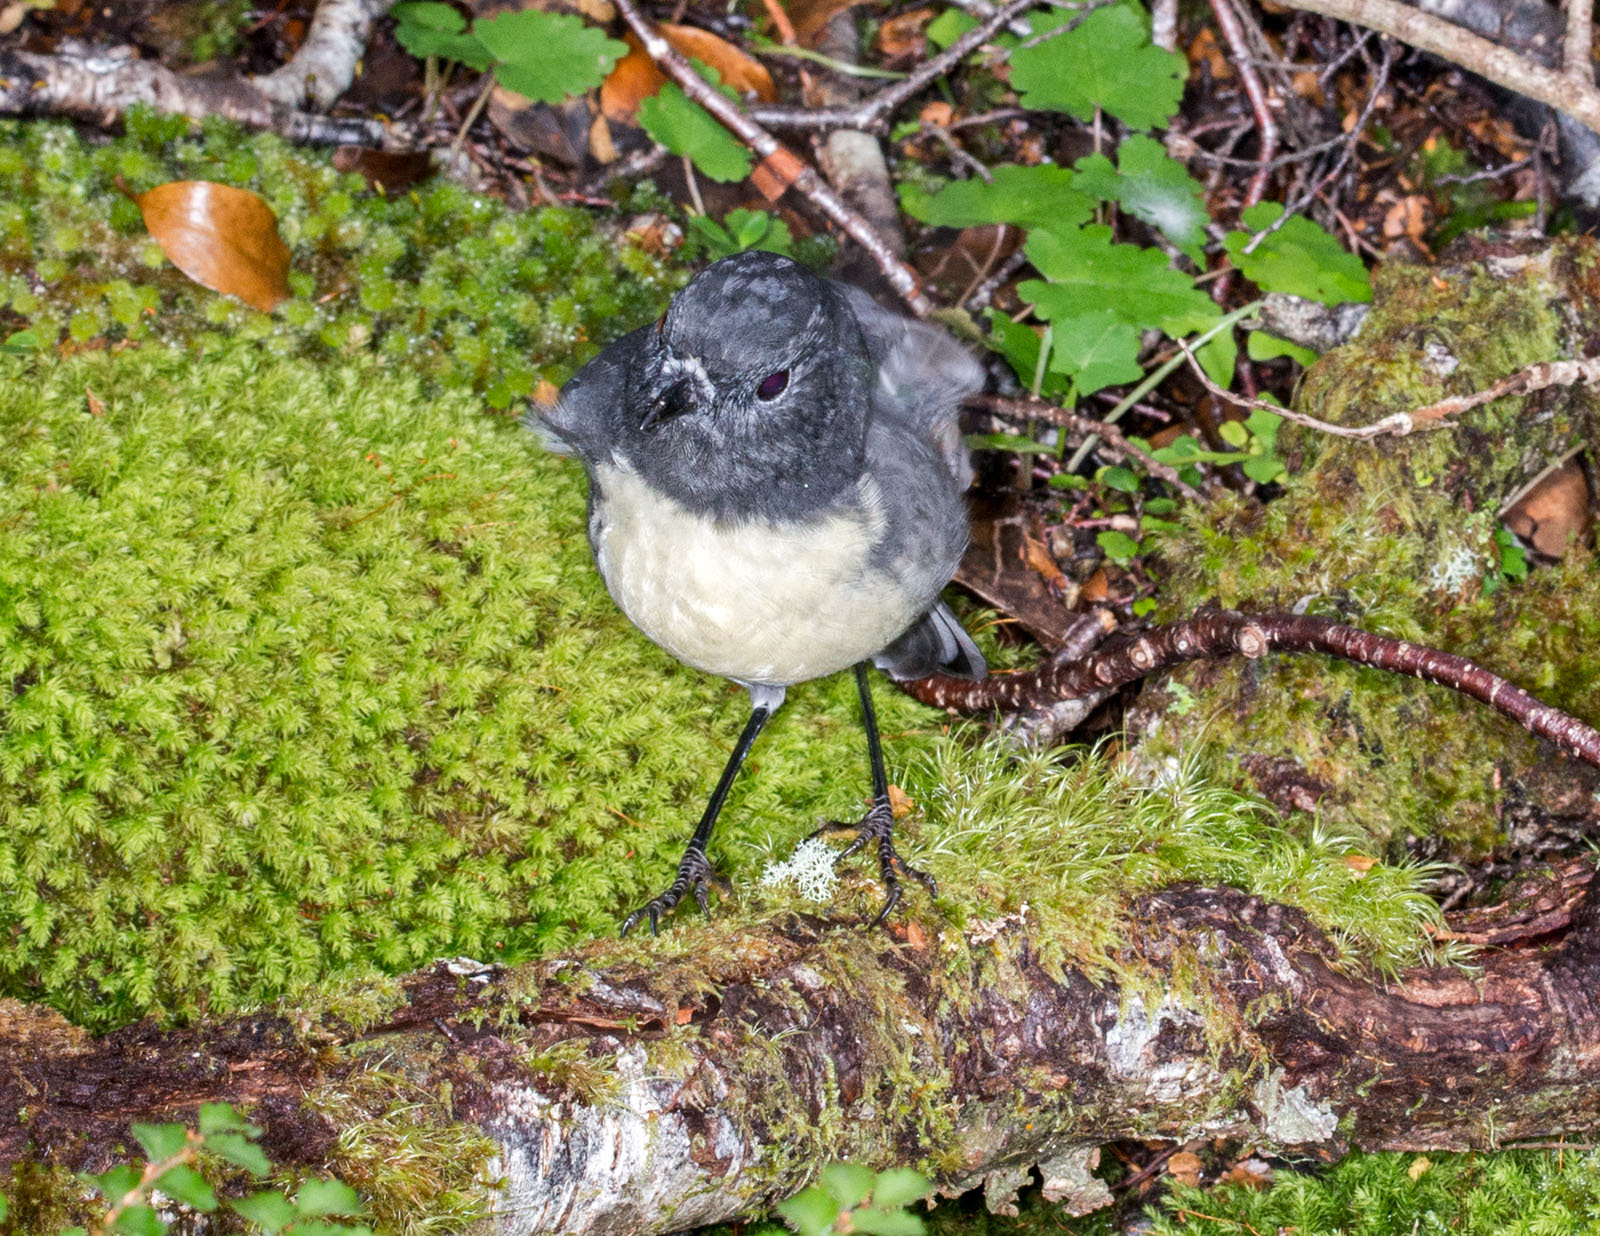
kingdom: Animalia
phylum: Chordata
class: Aves
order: Passeriformes
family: Petroicidae
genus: Petroica
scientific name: Petroica australis
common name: New zealand robin
